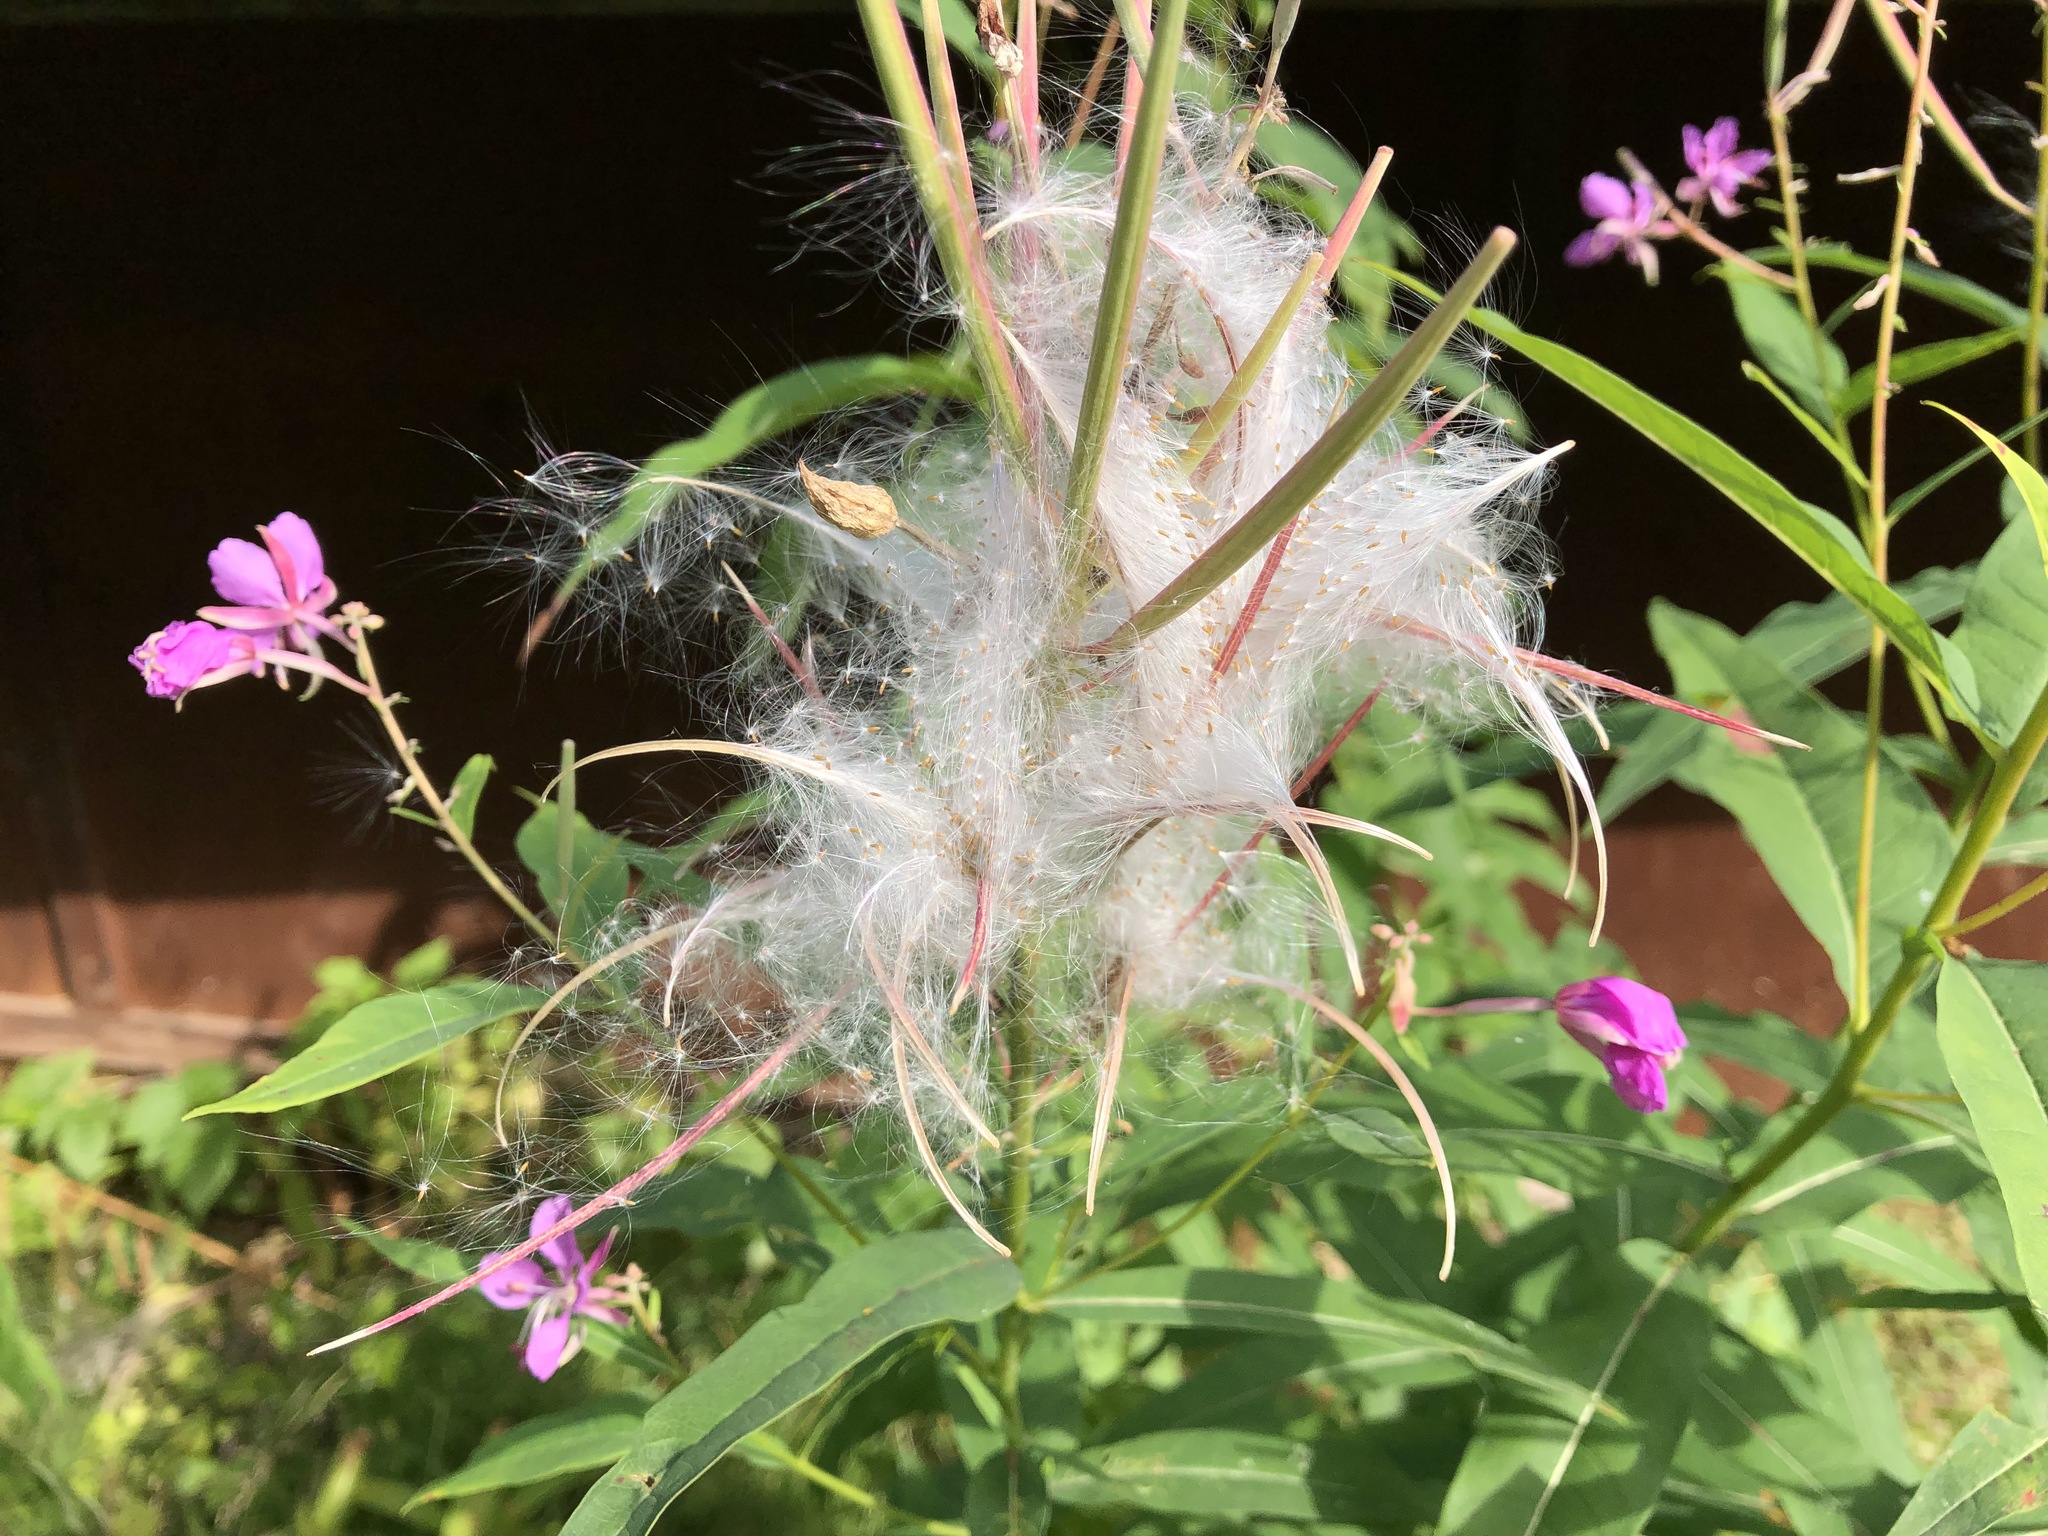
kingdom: Plantae
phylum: Tracheophyta
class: Magnoliopsida
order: Myrtales
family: Onagraceae
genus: Chamaenerion
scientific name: Chamaenerion angustifolium
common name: Fireweed
